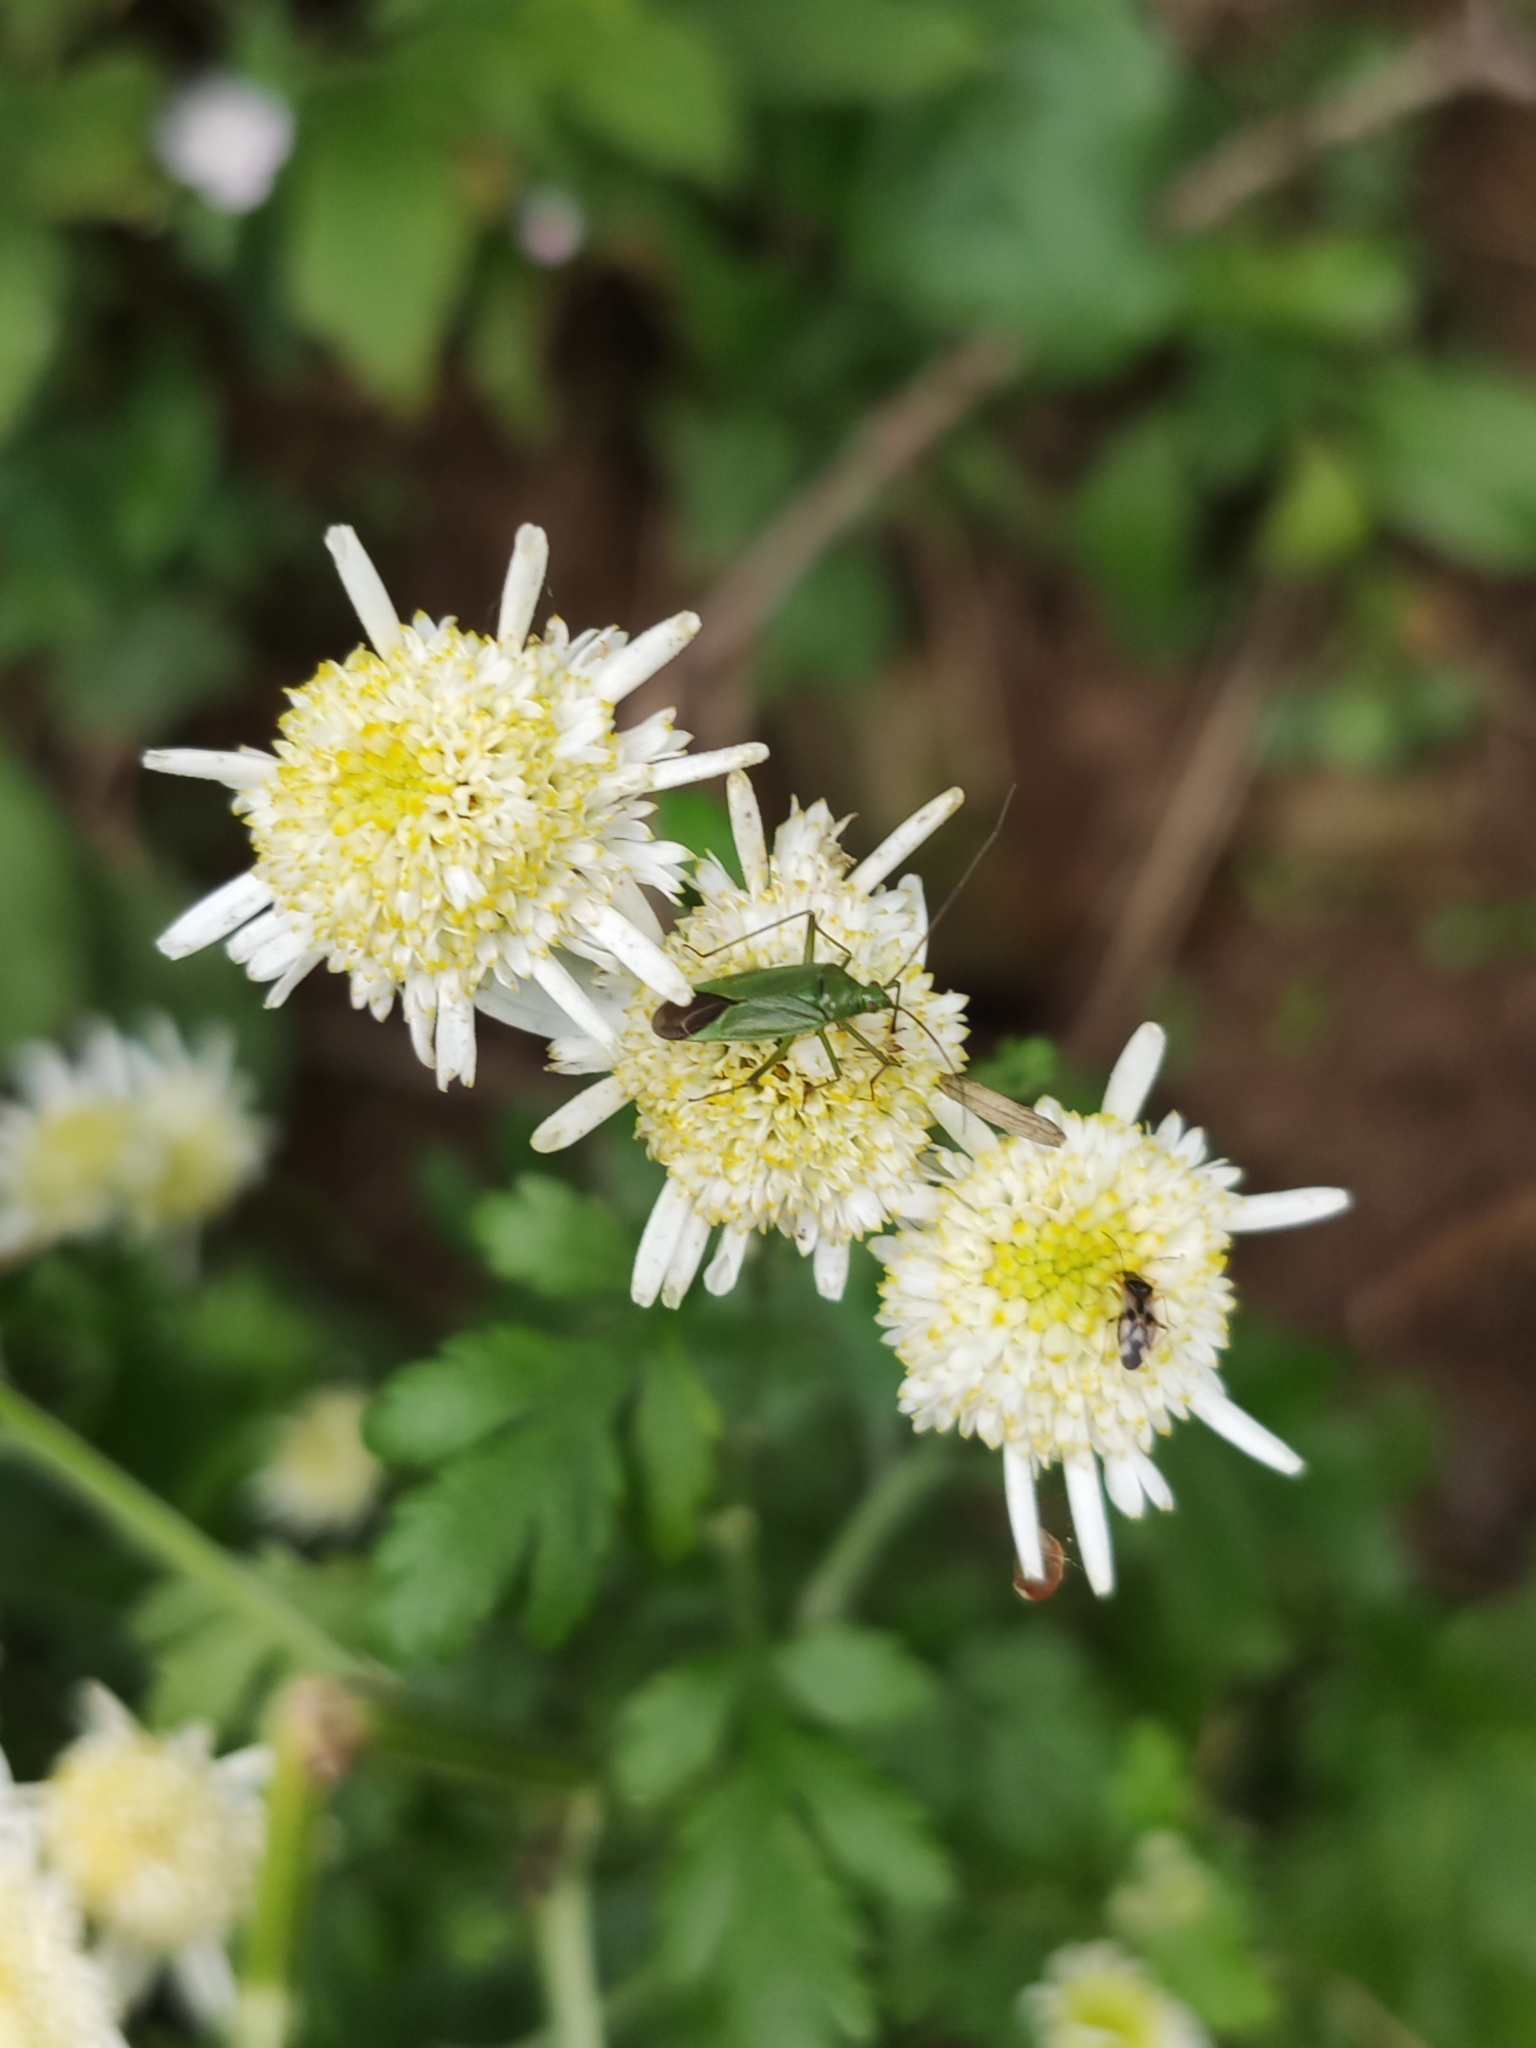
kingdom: Plantae
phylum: Tracheophyta
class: Magnoliopsida
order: Asterales
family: Asteraceae
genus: Tanacetum
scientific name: Tanacetum parthenium
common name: Feverfew
